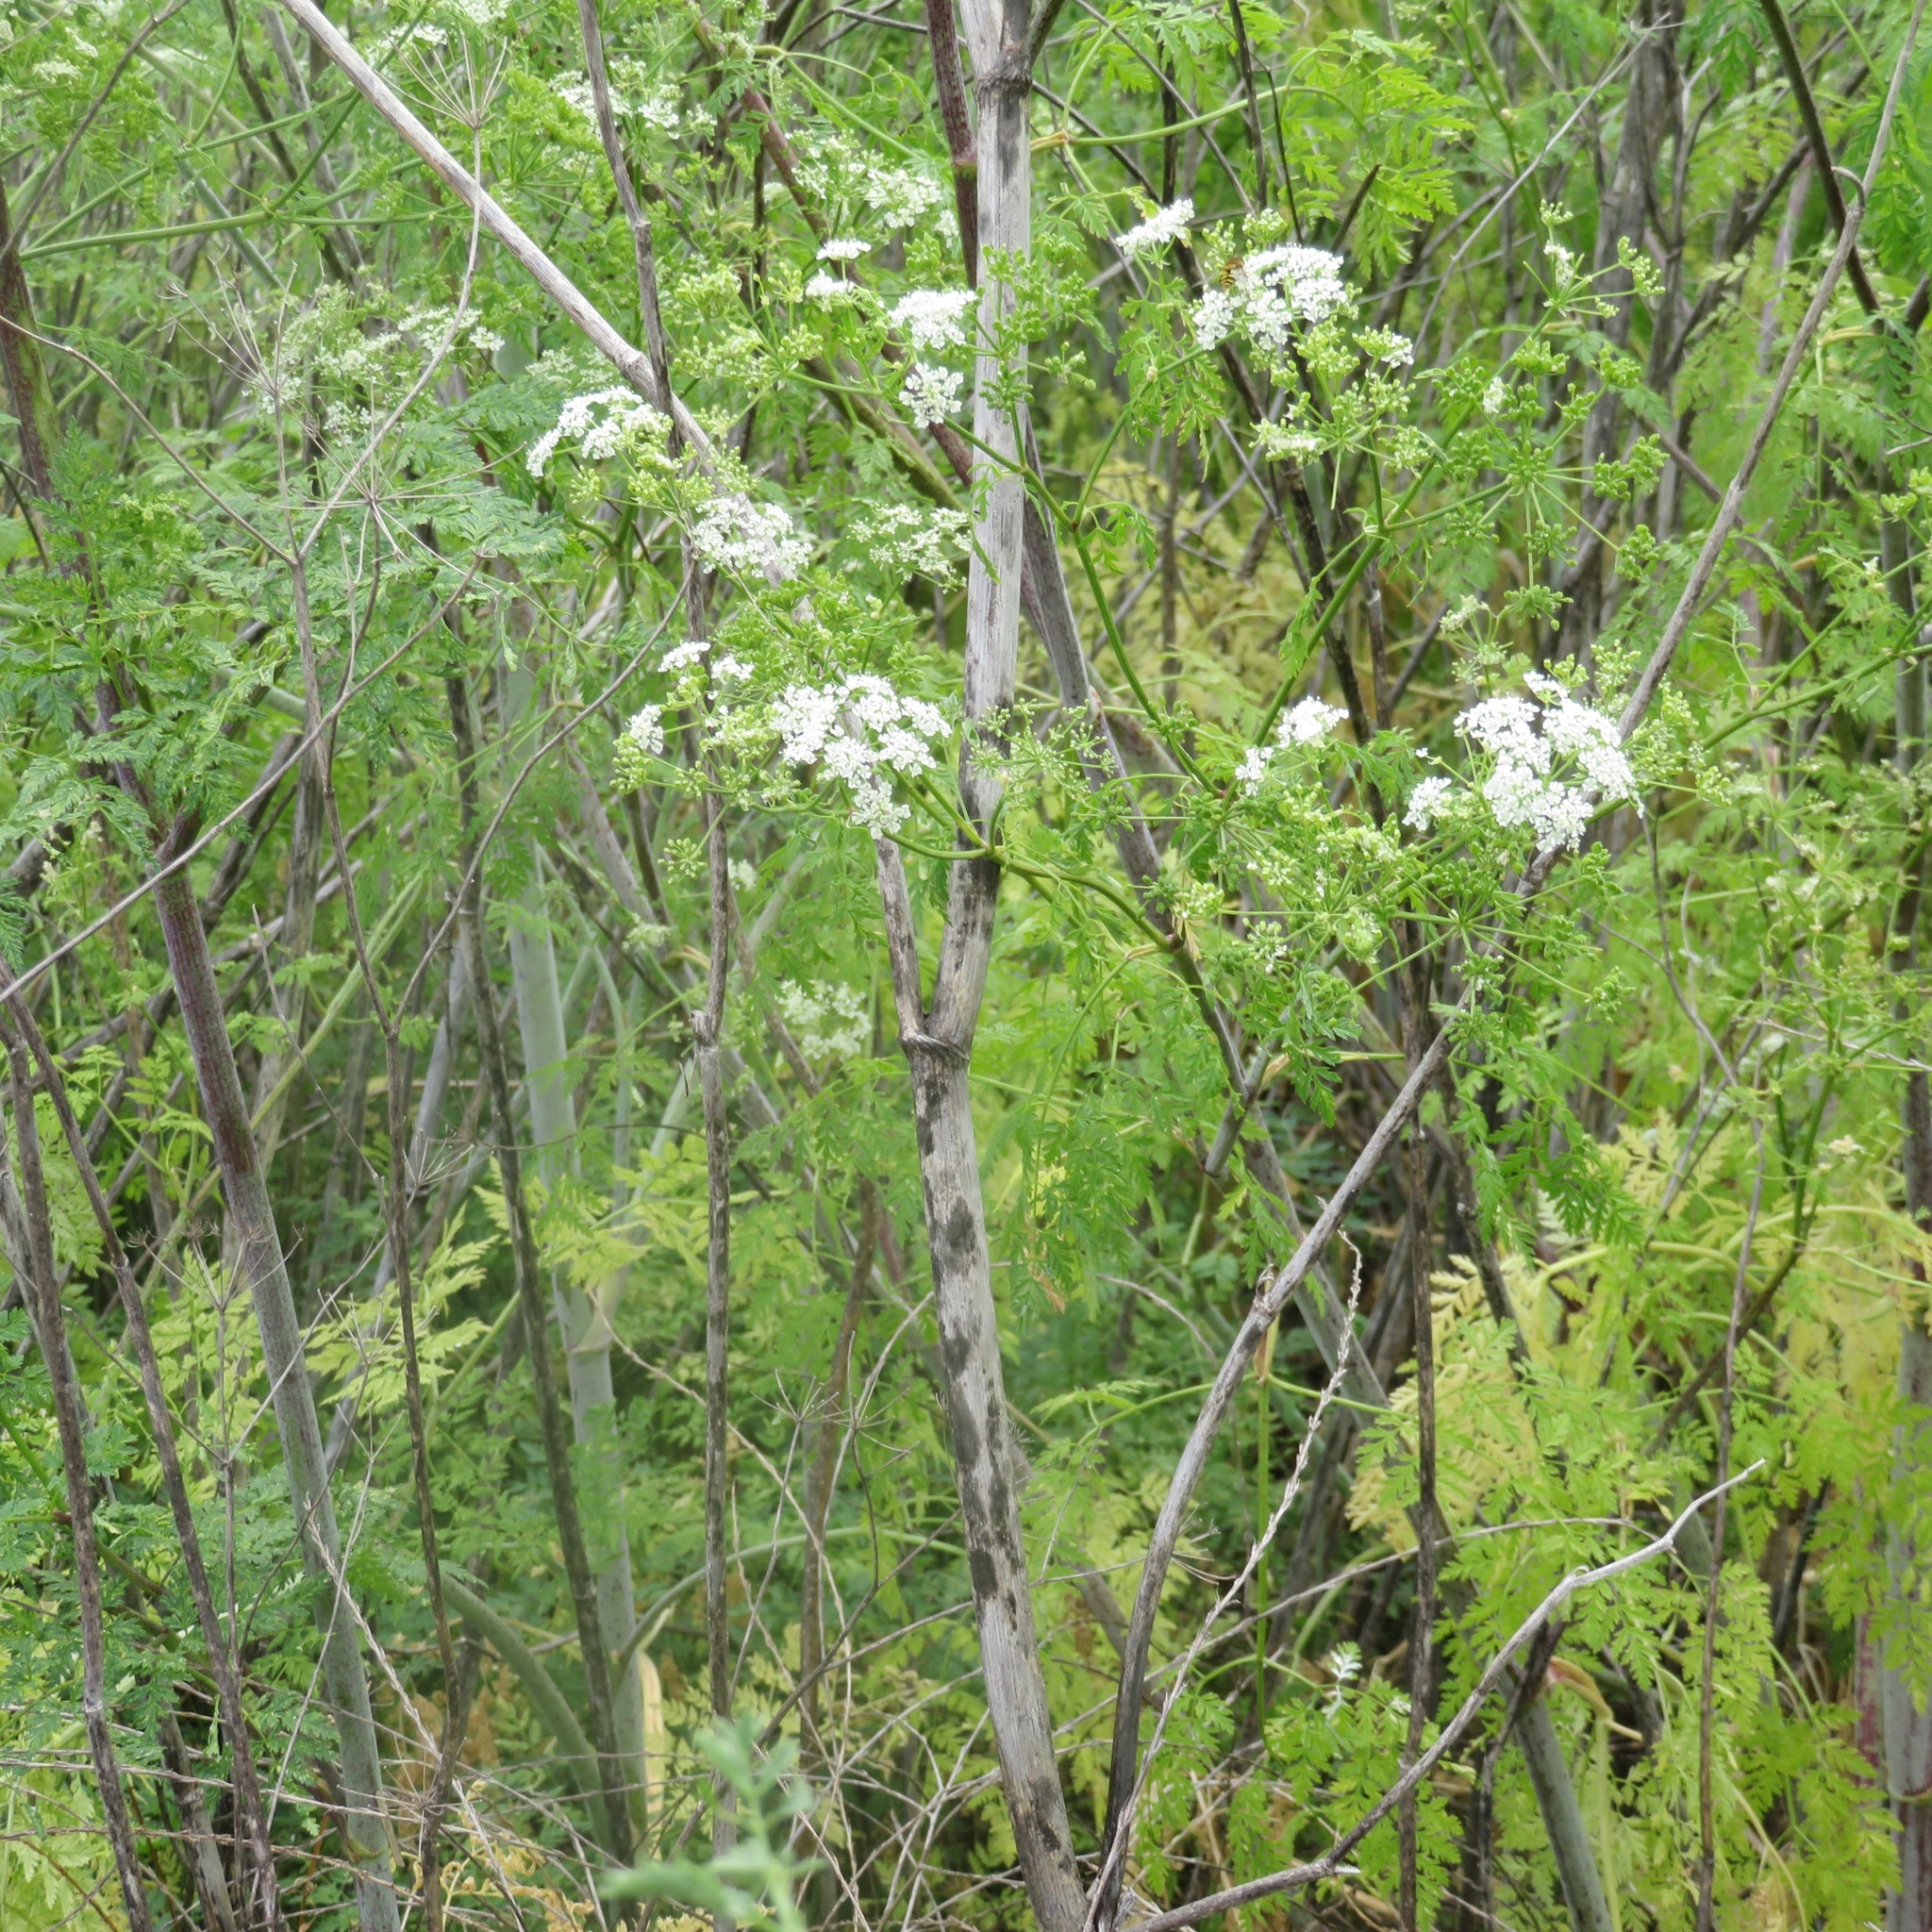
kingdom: Plantae
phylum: Tracheophyta
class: Magnoliopsida
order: Apiales
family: Apiaceae
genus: Conium
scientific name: Conium maculatum
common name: Hemlock
